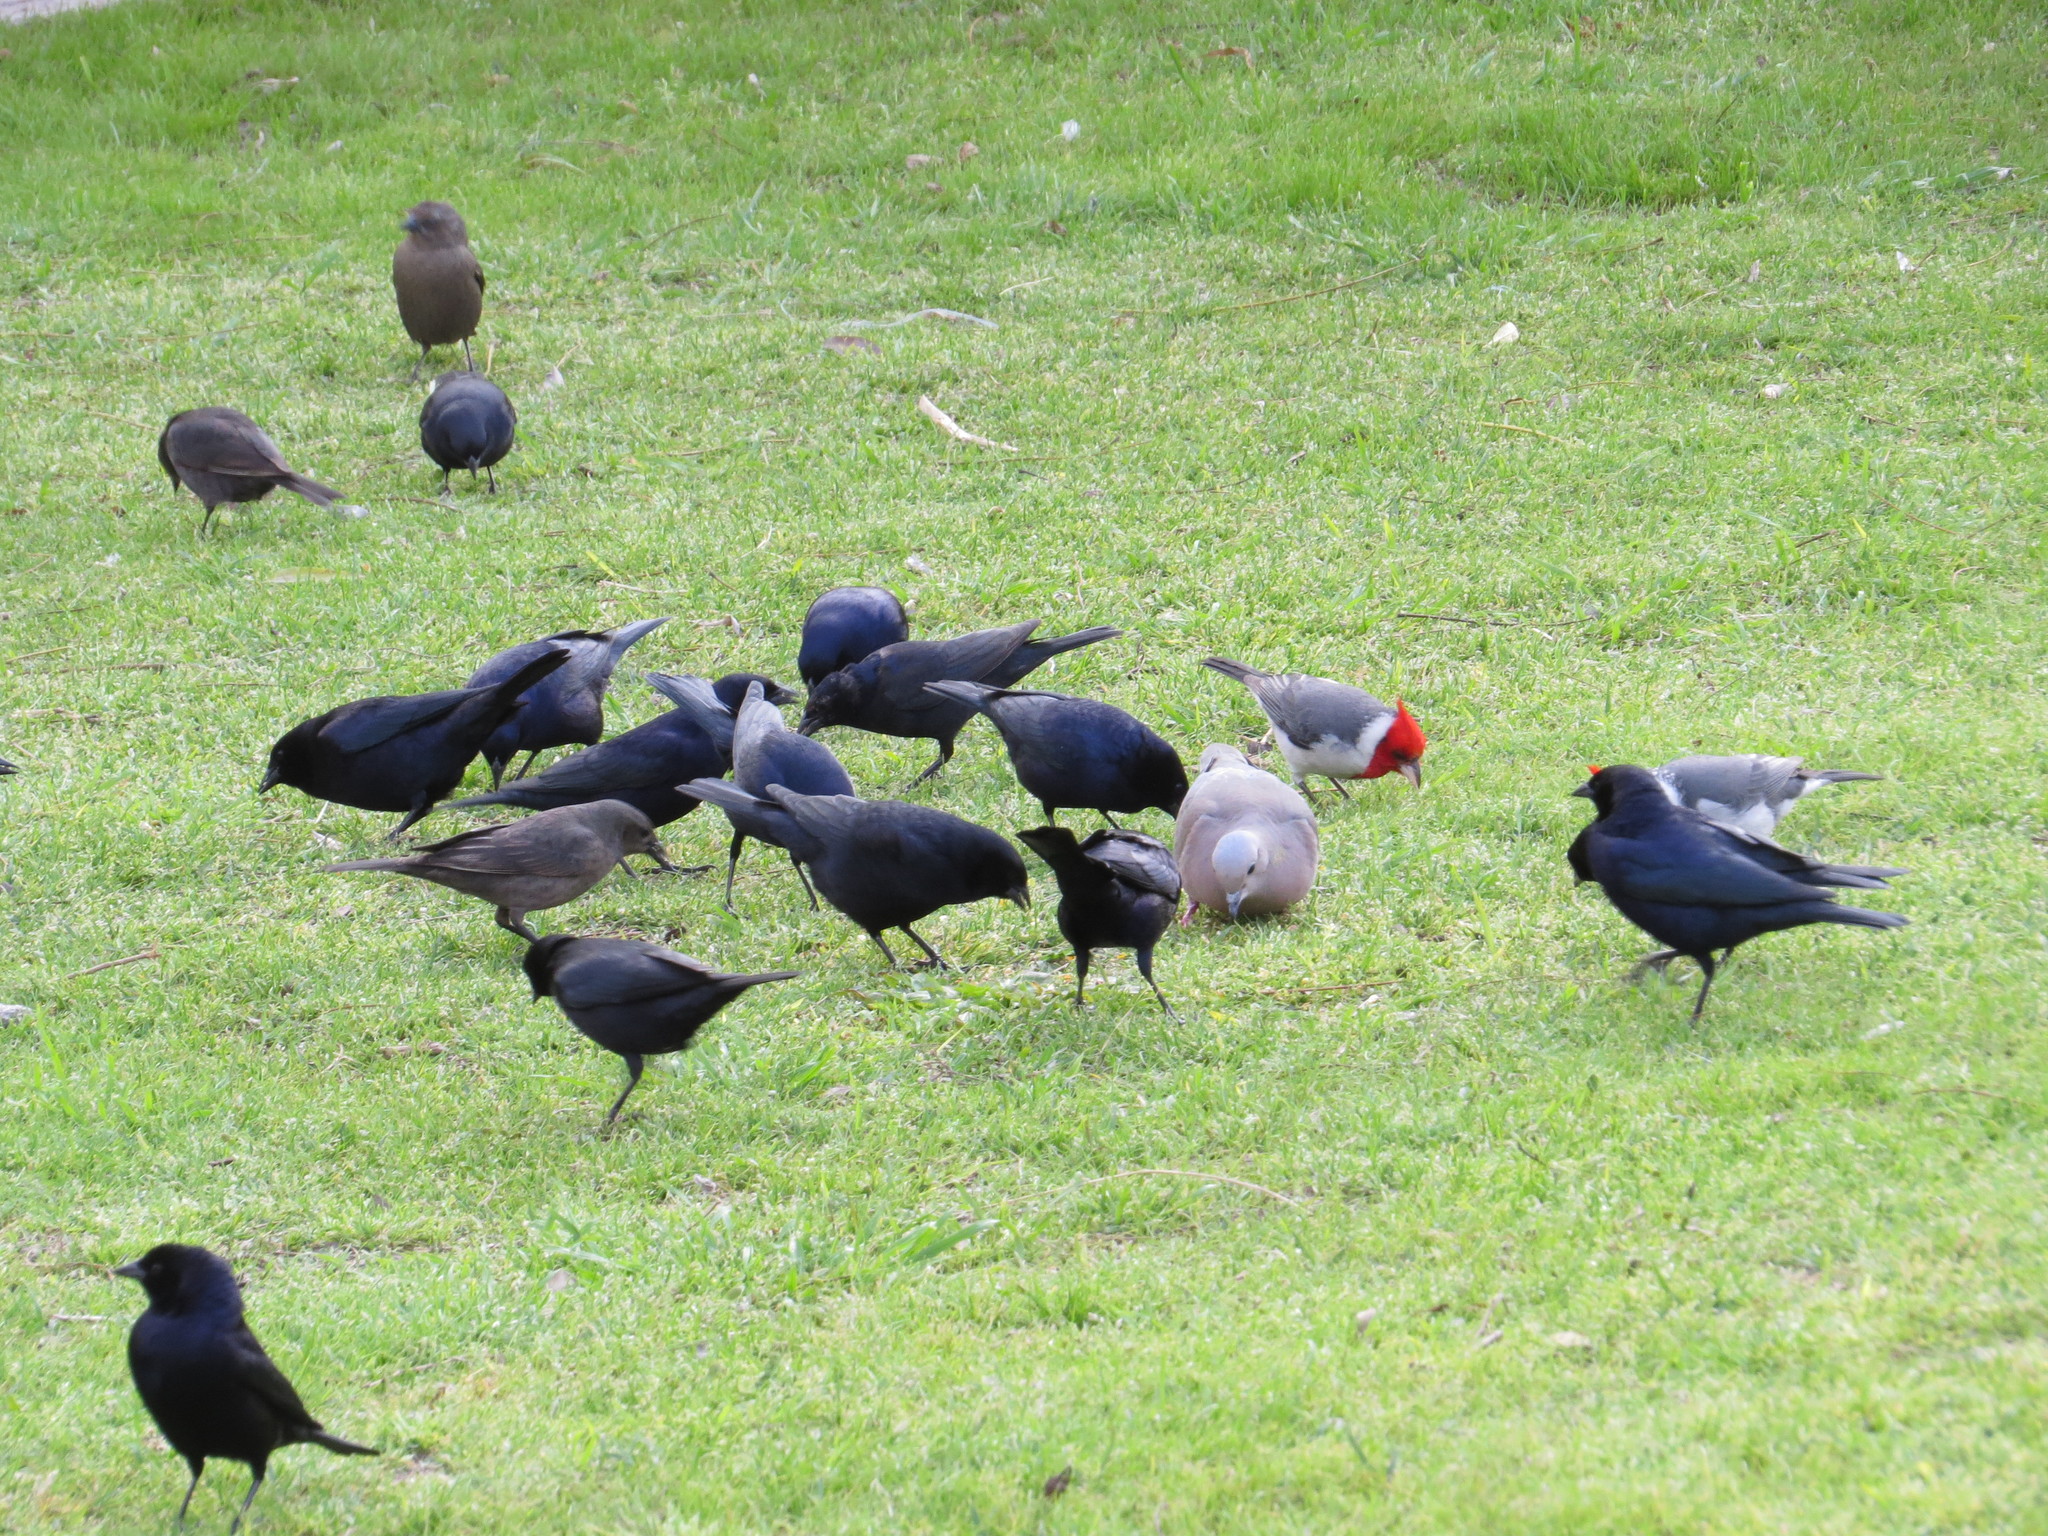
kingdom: Animalia
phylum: Chordata
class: Aves
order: Passeriformes
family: Icteridae
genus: Molothrus
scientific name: Molothrus bonariensis
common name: Shiny cowbird
